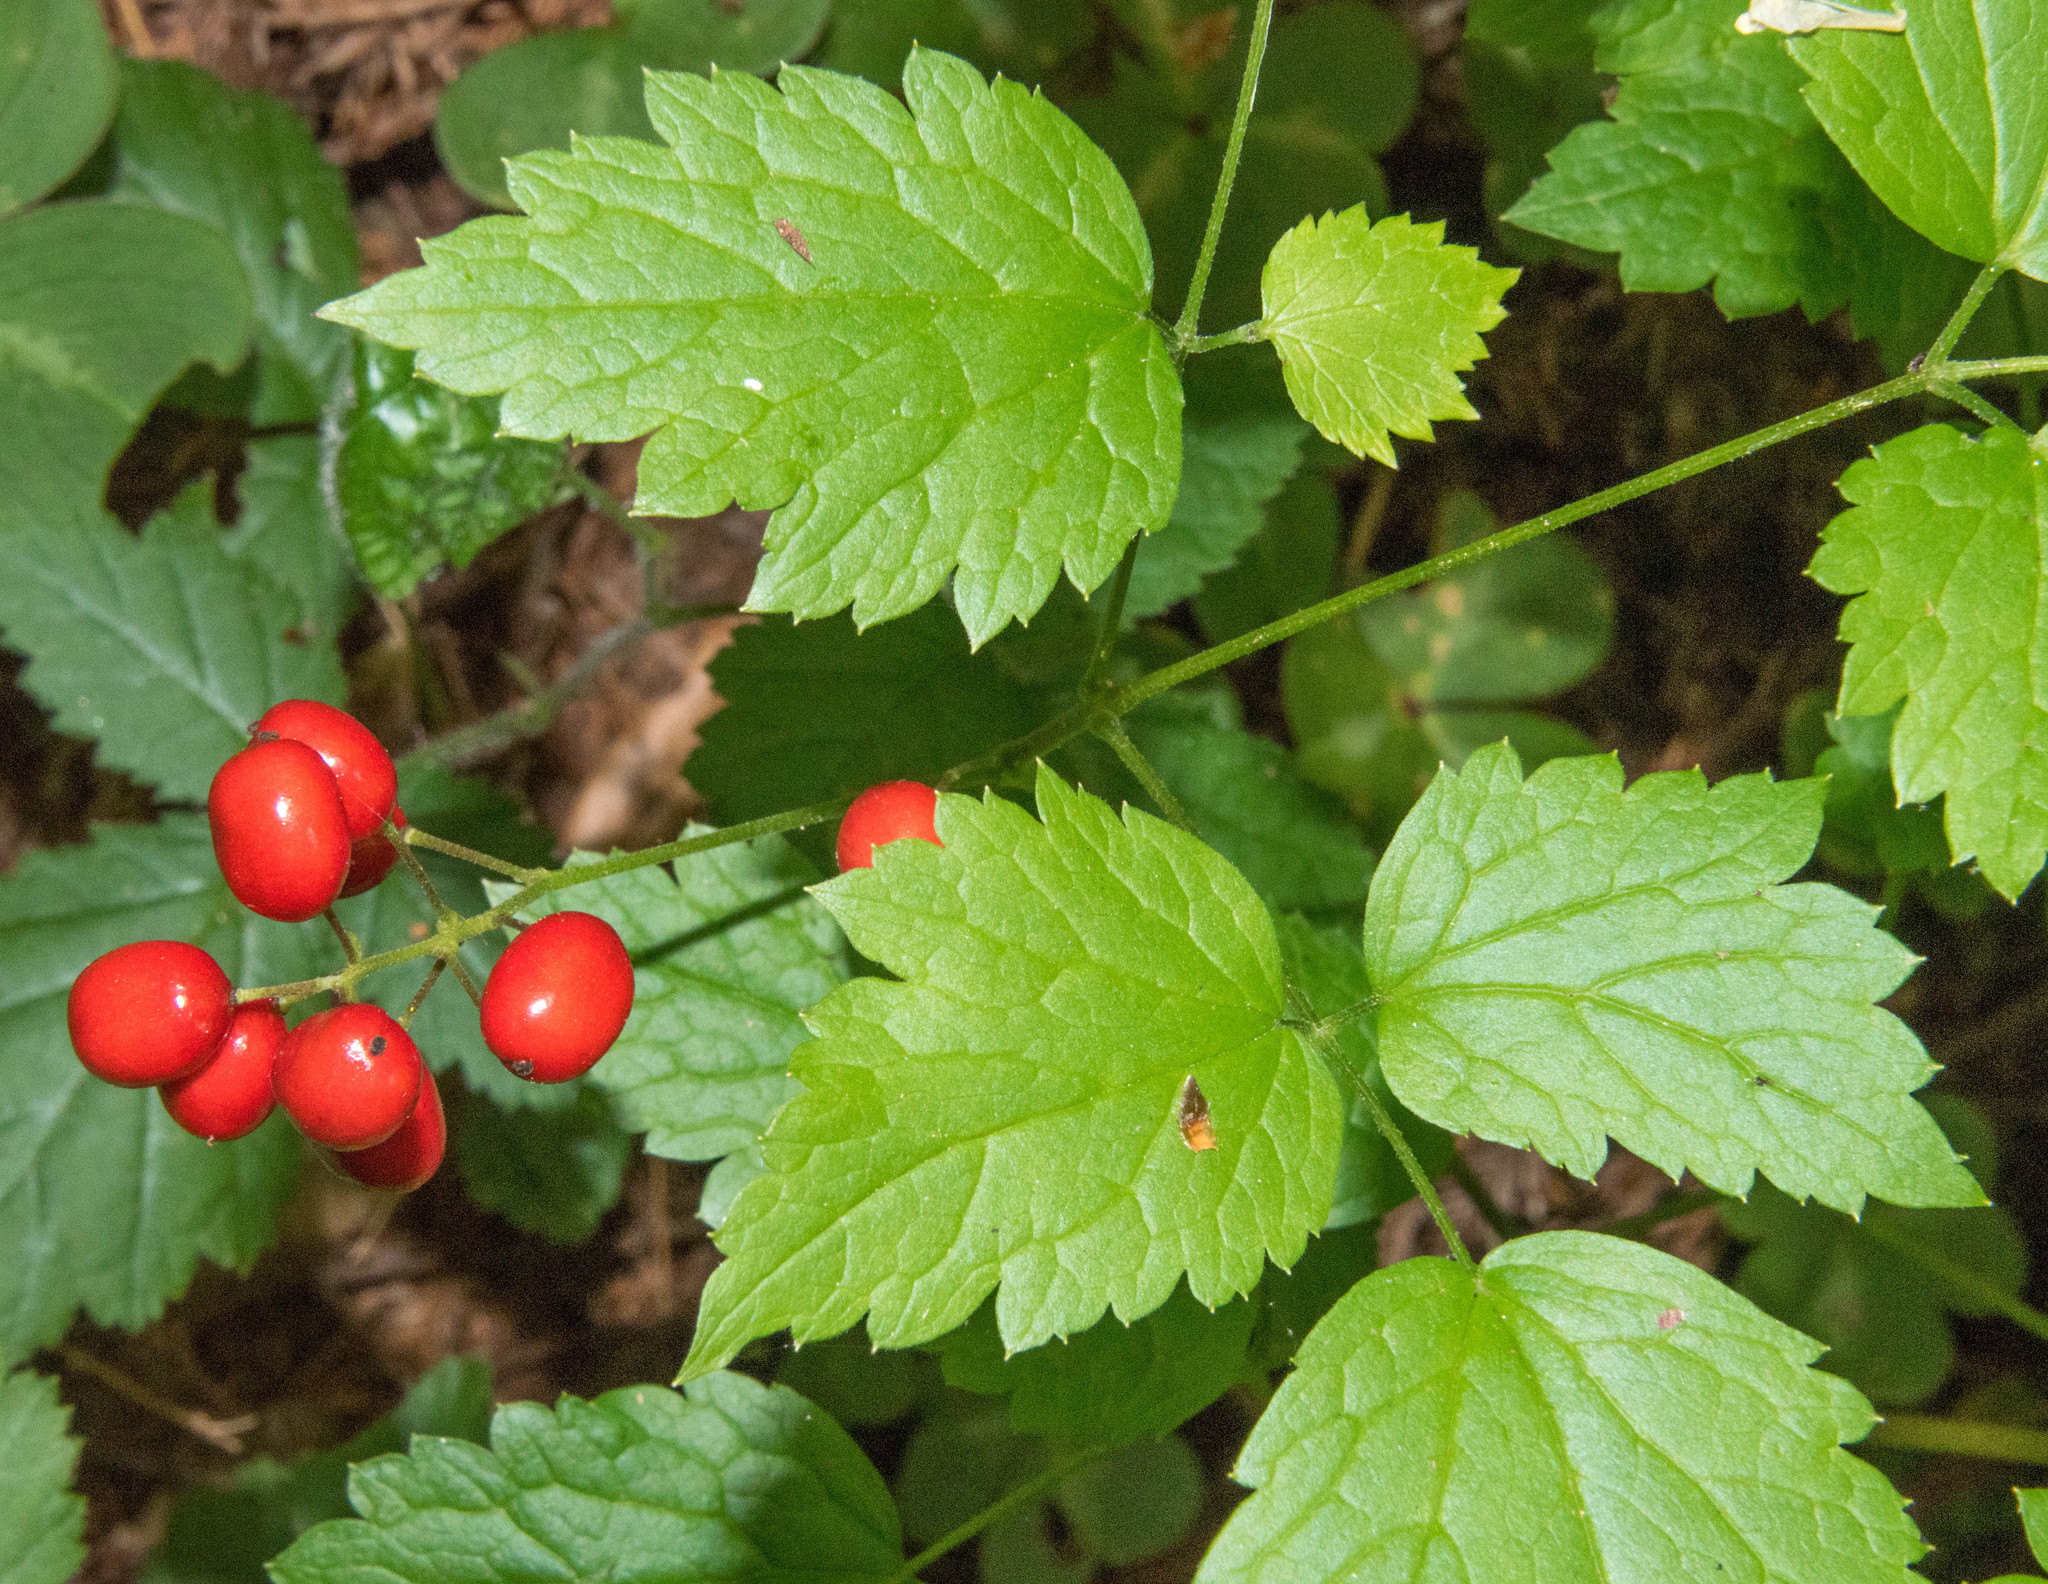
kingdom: Plantae
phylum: Tracheophyta
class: Magnoliopsida
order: Ranunculales
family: Ranunculaceae
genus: Actaea
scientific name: Actaea rubra
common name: Red baneberry
